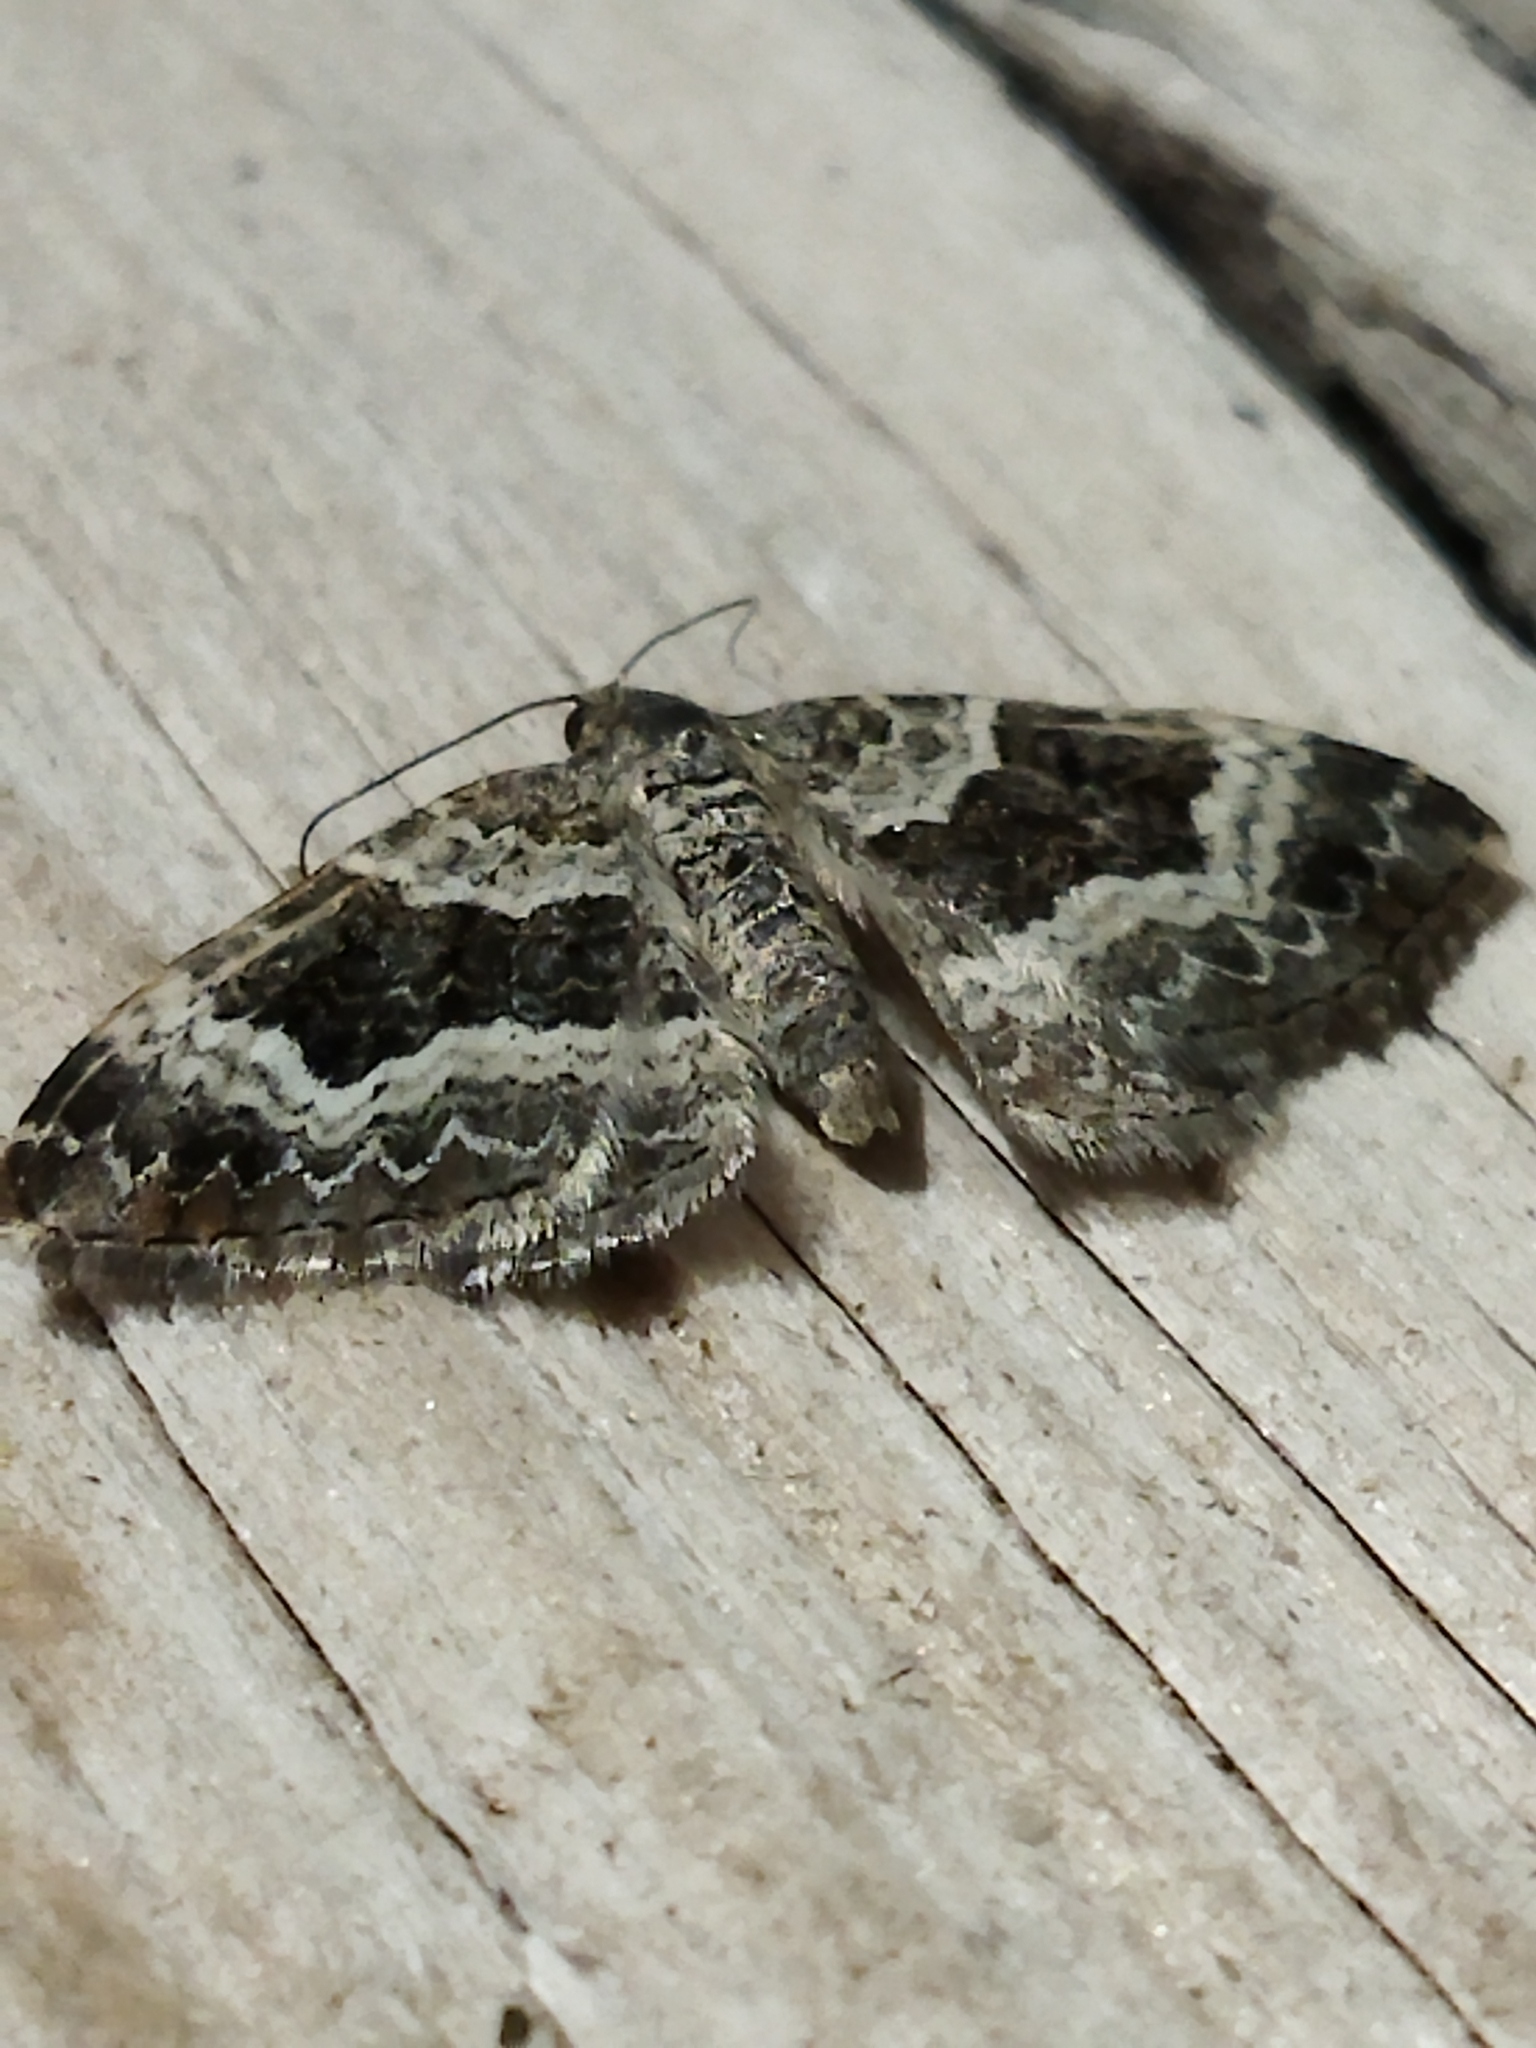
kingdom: Animalia
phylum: Arthropoda
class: Insecta
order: Lepidoptera
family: Geometridae
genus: Epirrhoe
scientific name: Epirrhoe alternata
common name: Common carpet
